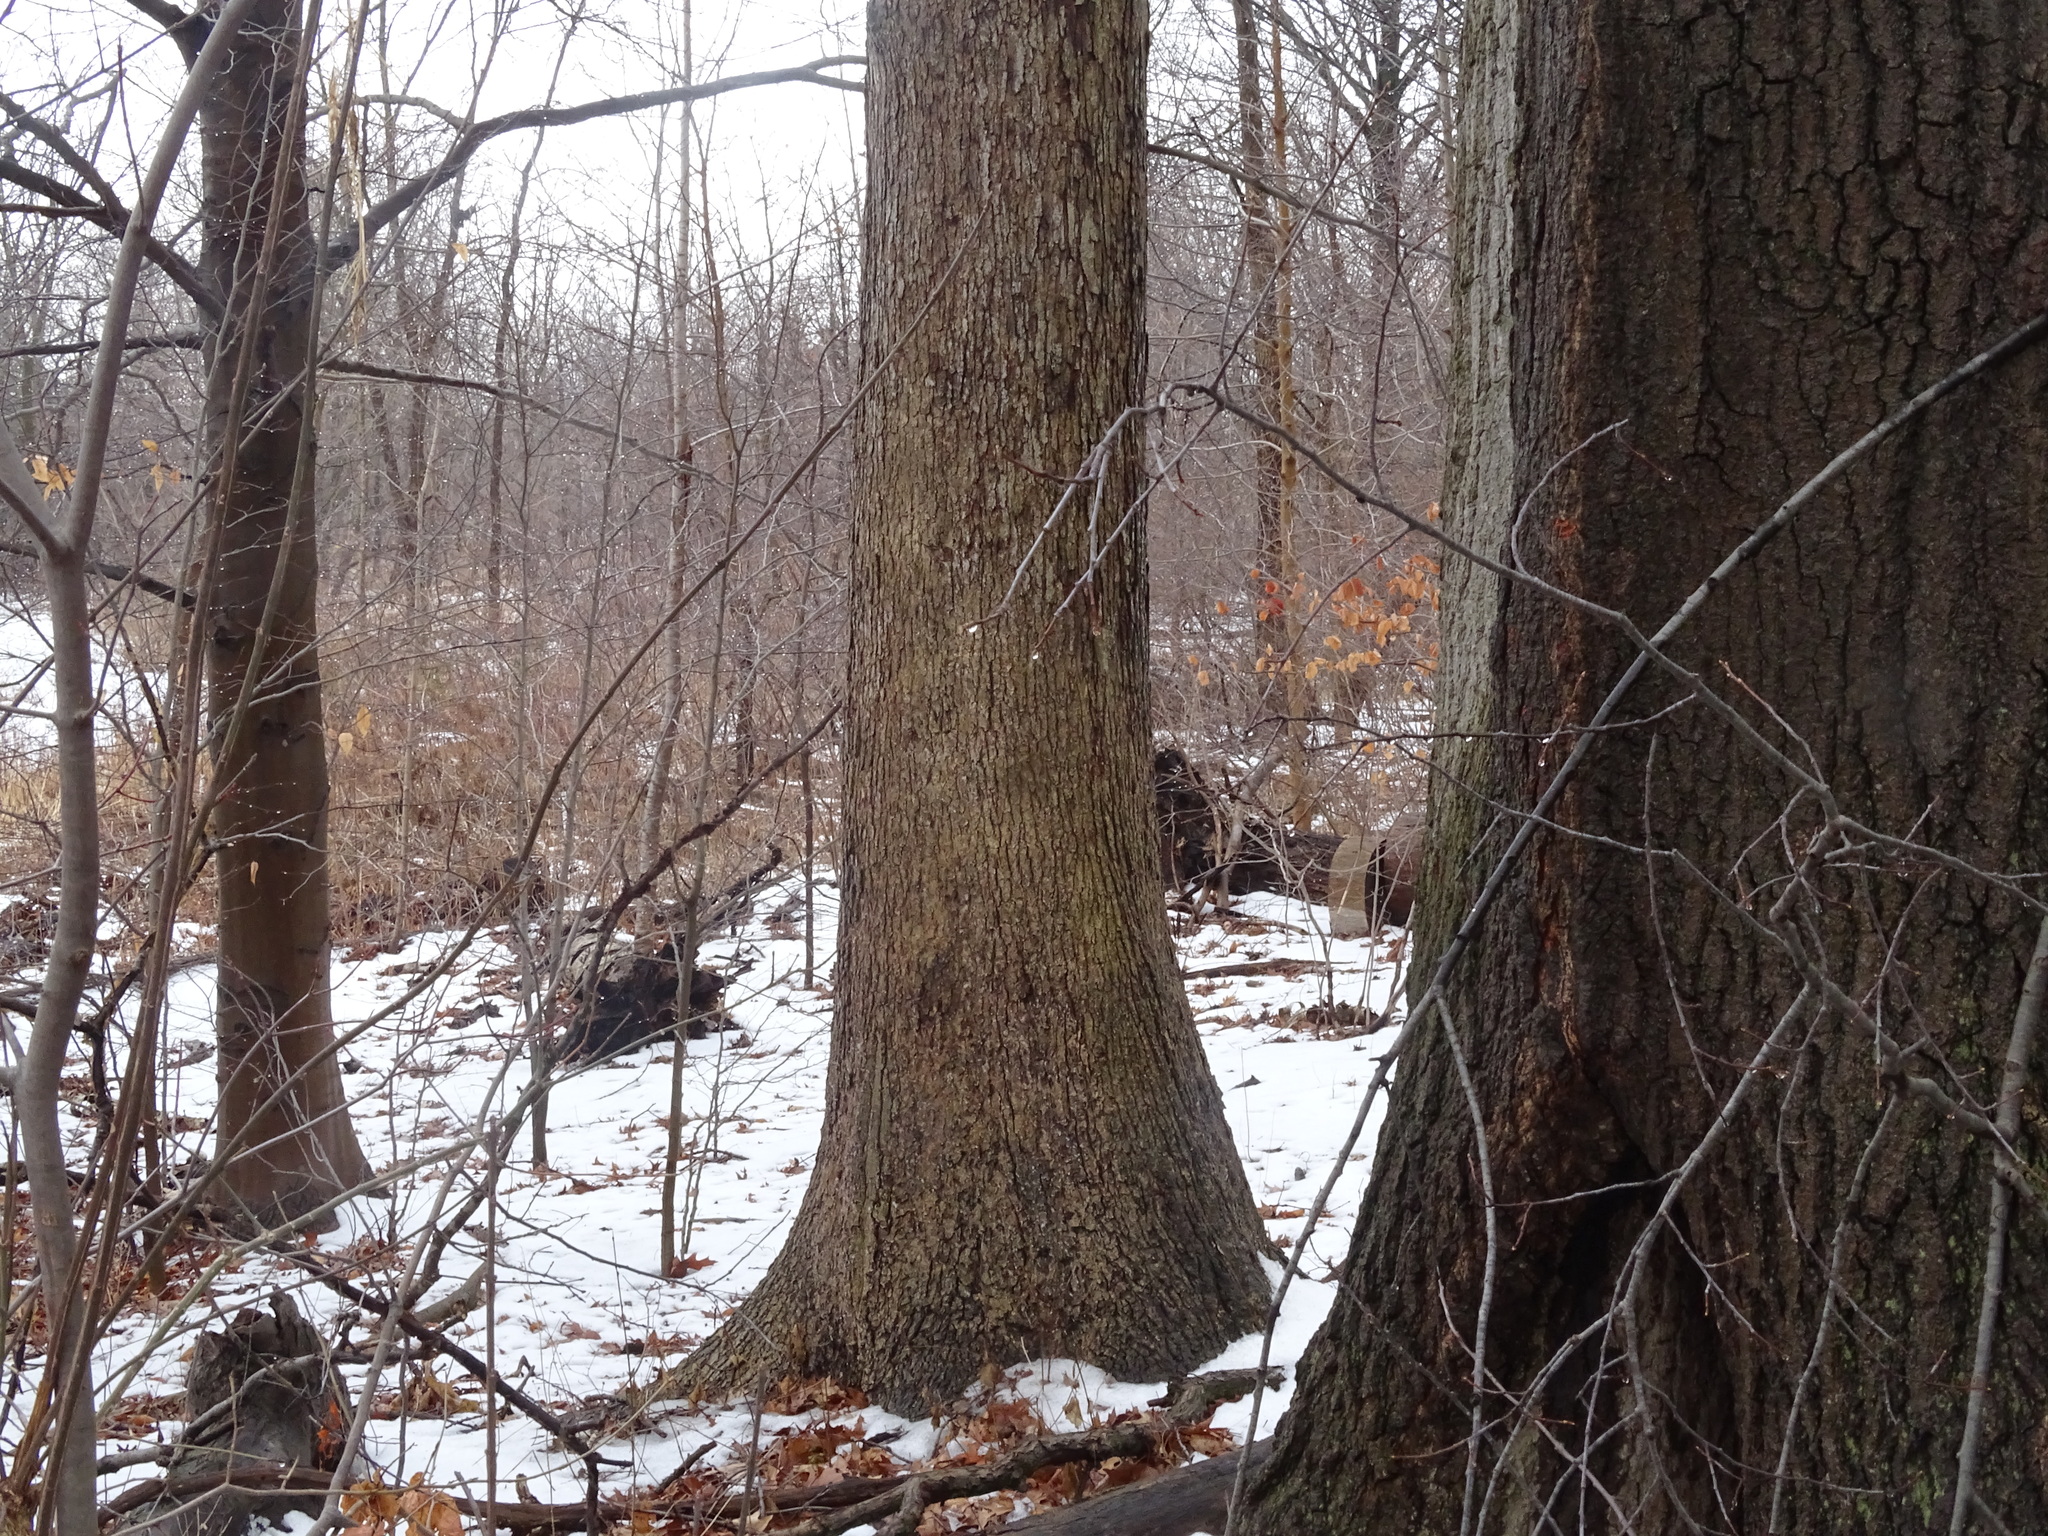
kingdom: Plantae
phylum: Tracheophyta
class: Magnoliopsida
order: Fagales
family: Fagaceae
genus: Quercus
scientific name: Quercus alba
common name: White oak
